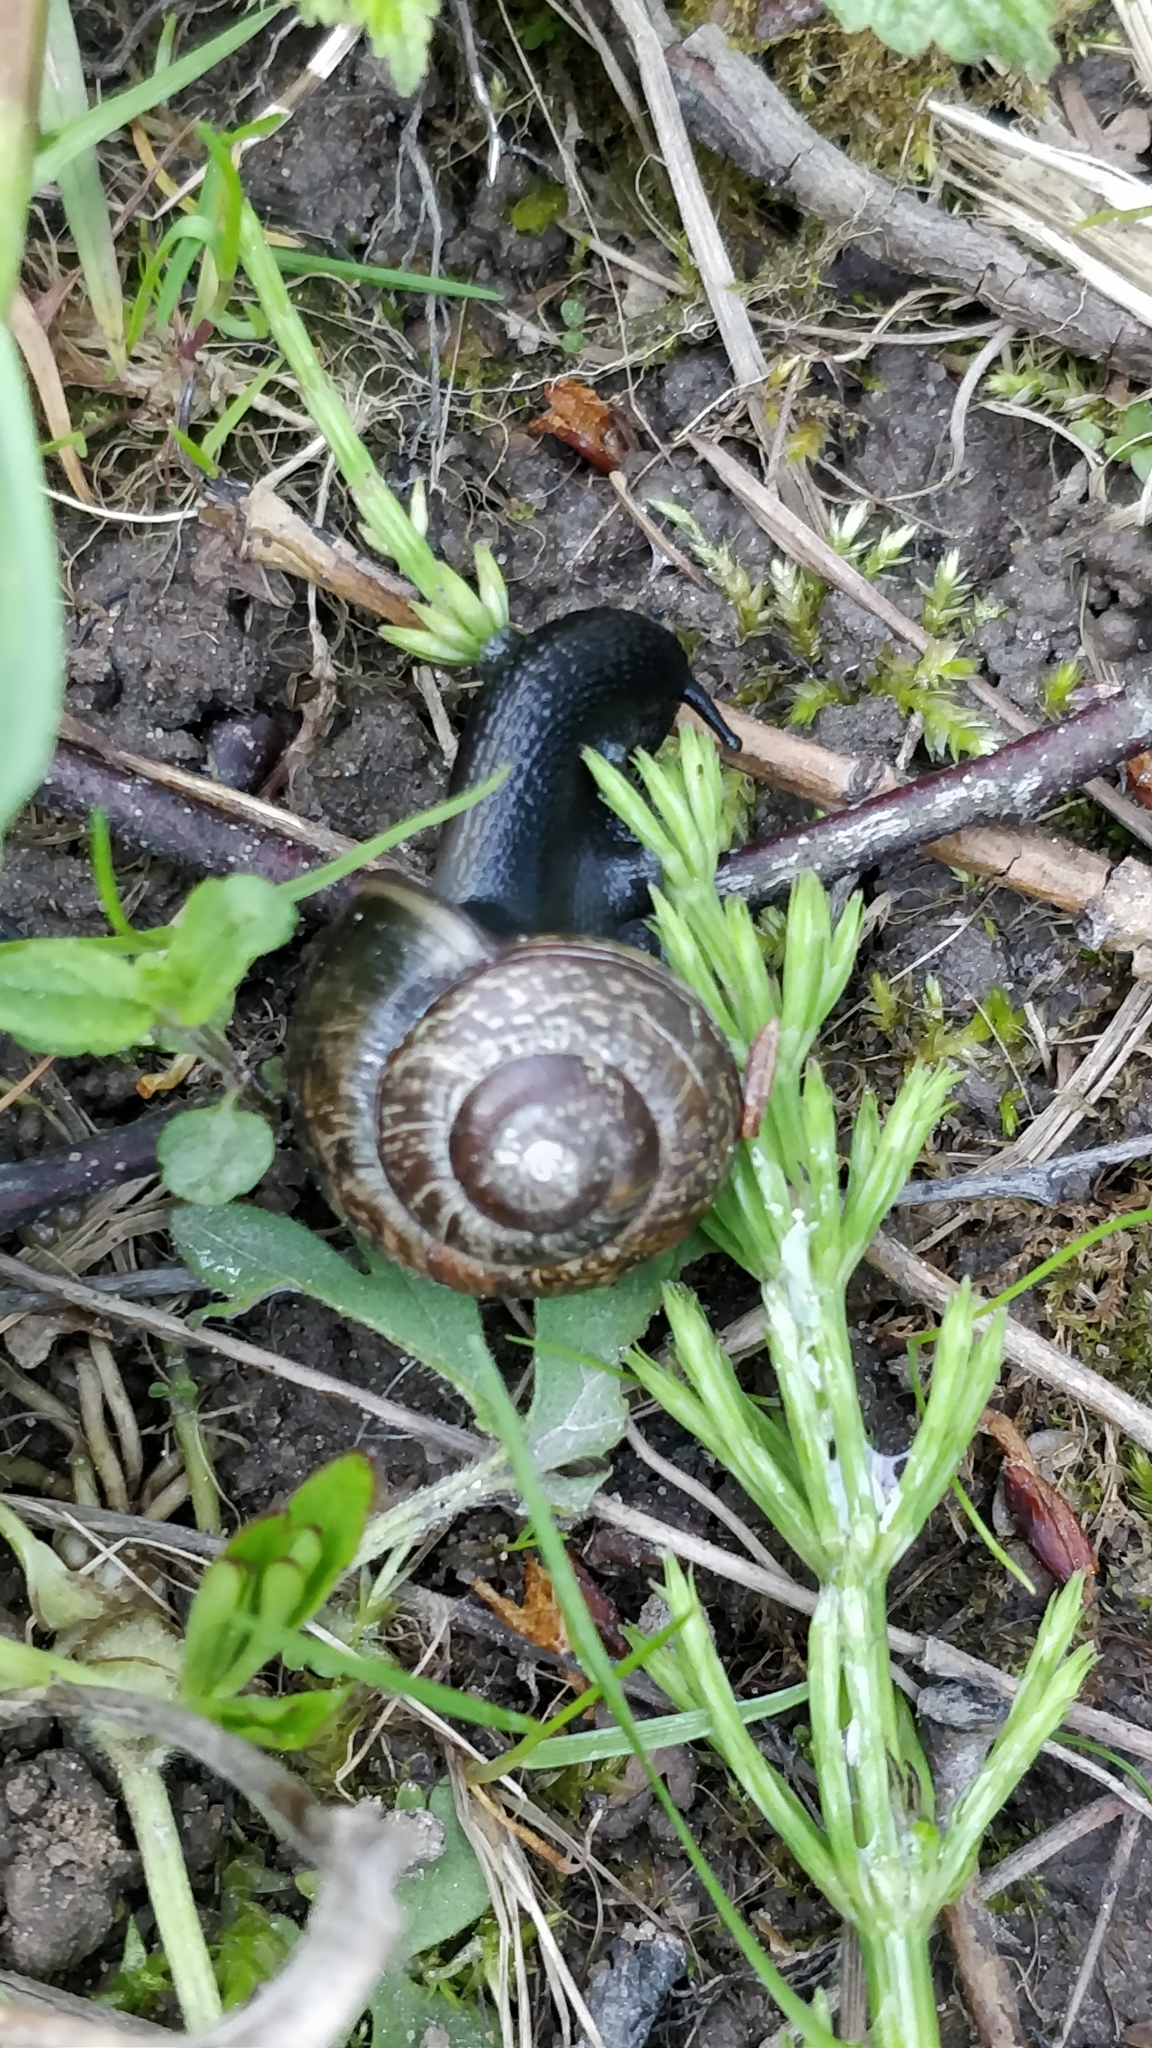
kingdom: Animalia
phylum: Mollusca
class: Gastropoda
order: Stylommatophora
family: Helicidae
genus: Arianta
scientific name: Arianta arbustorum
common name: Copse snail
